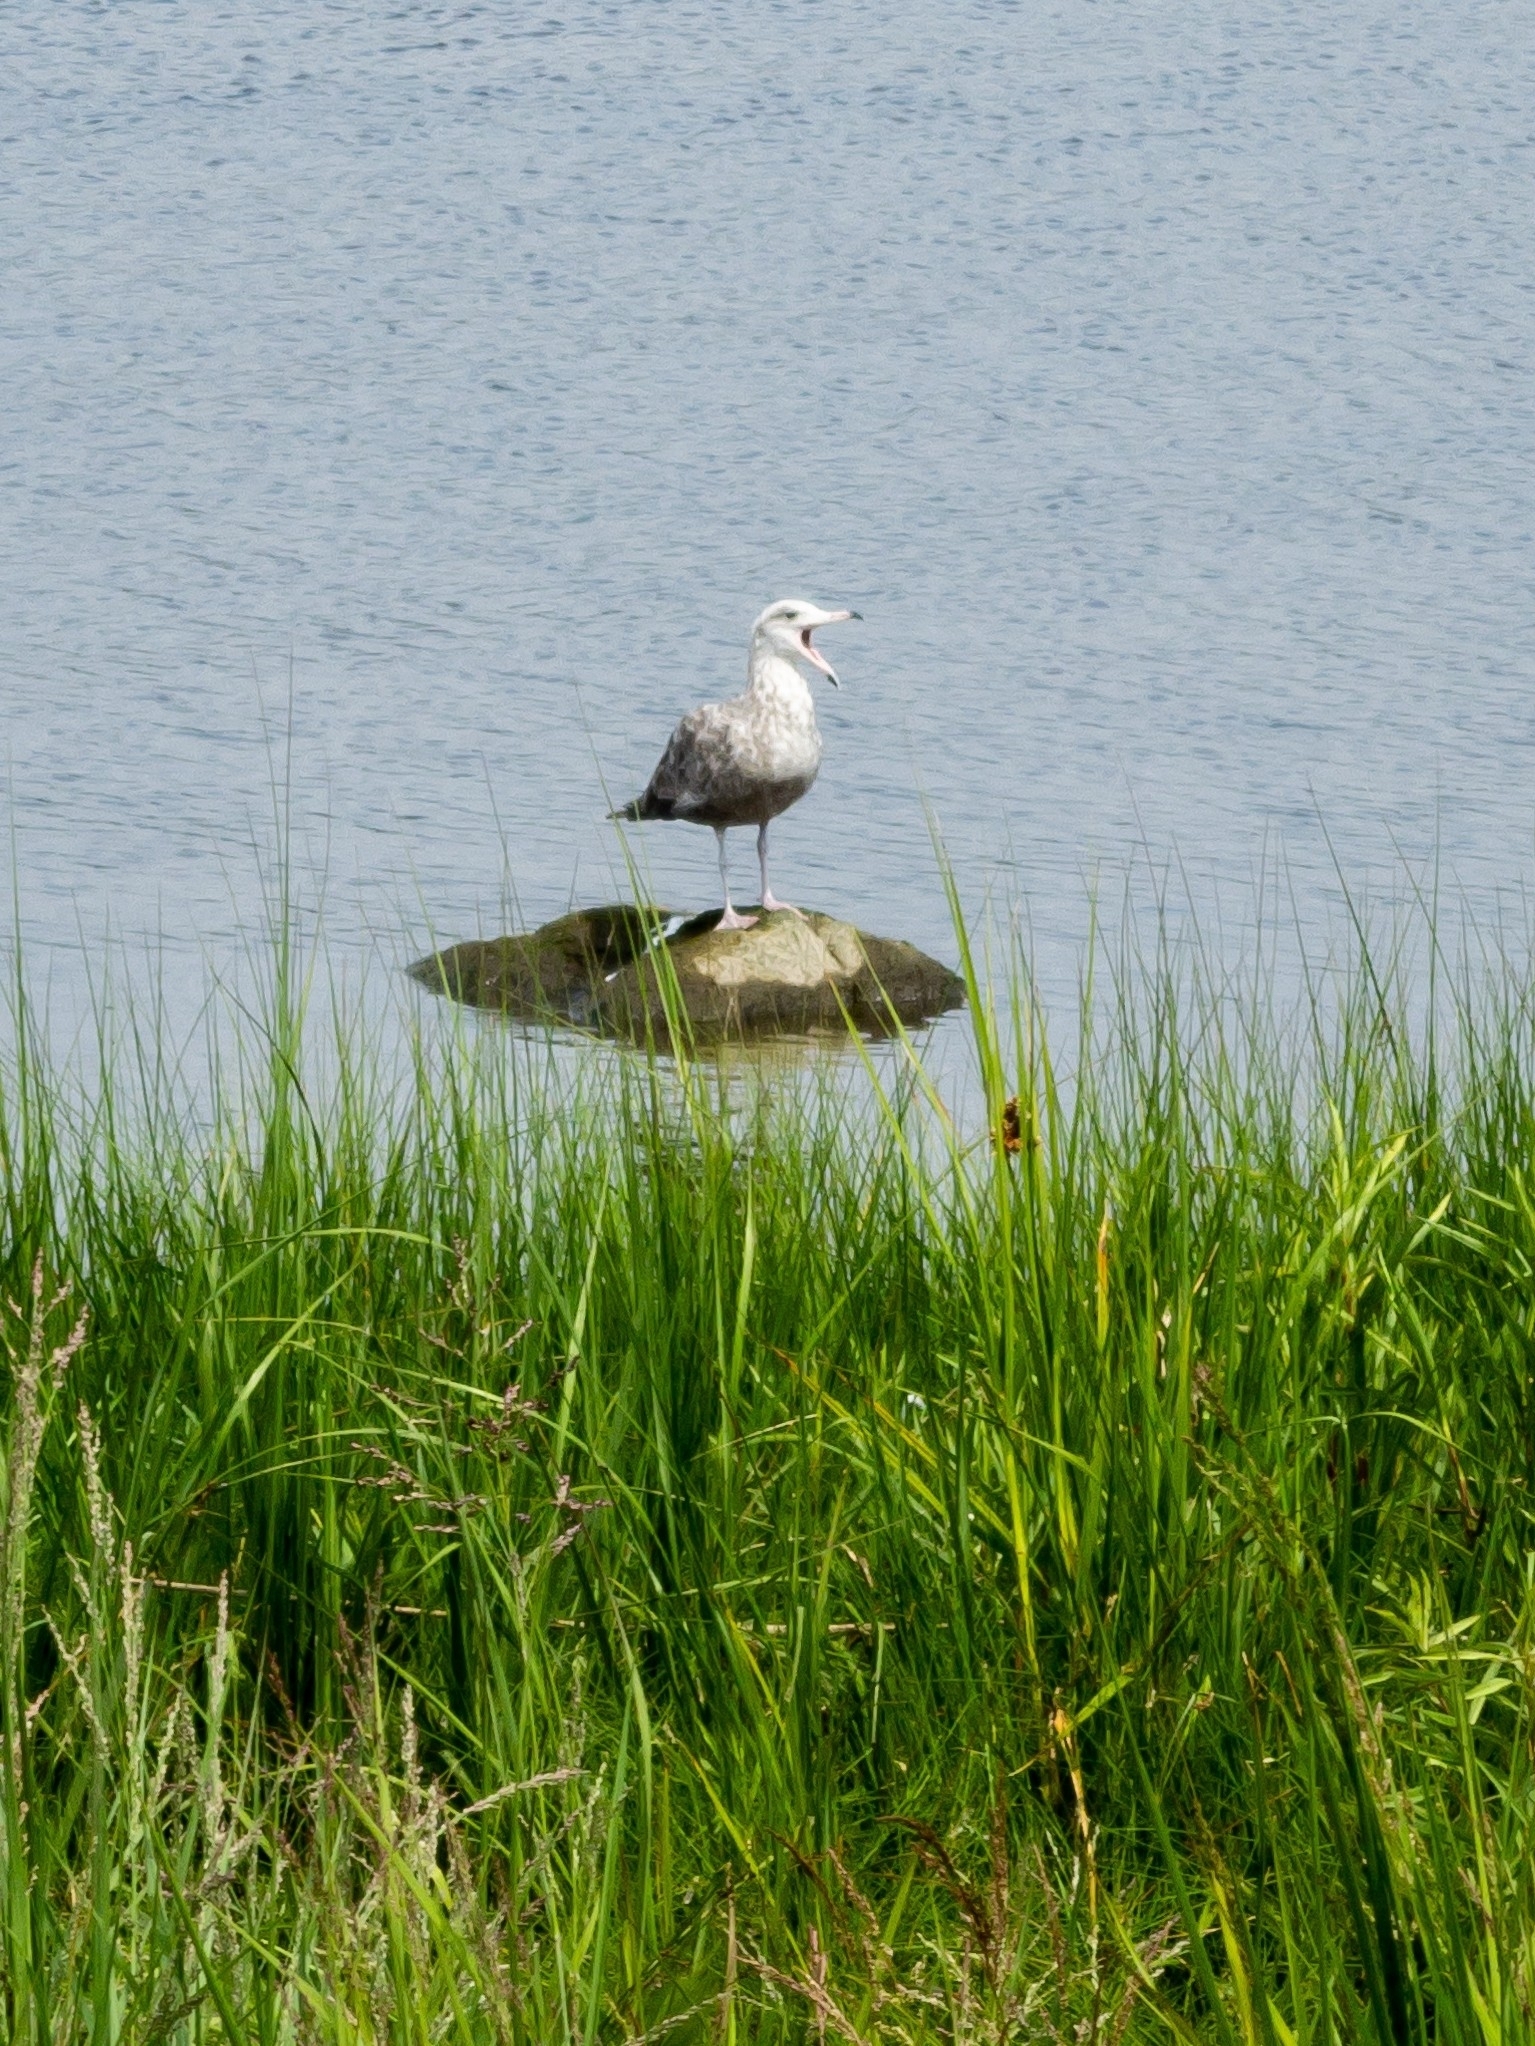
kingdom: Animalia
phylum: Chordata
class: Aves
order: Charadriiformes
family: Laridae
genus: Larus
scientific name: Larus argentatus
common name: Herring gull
